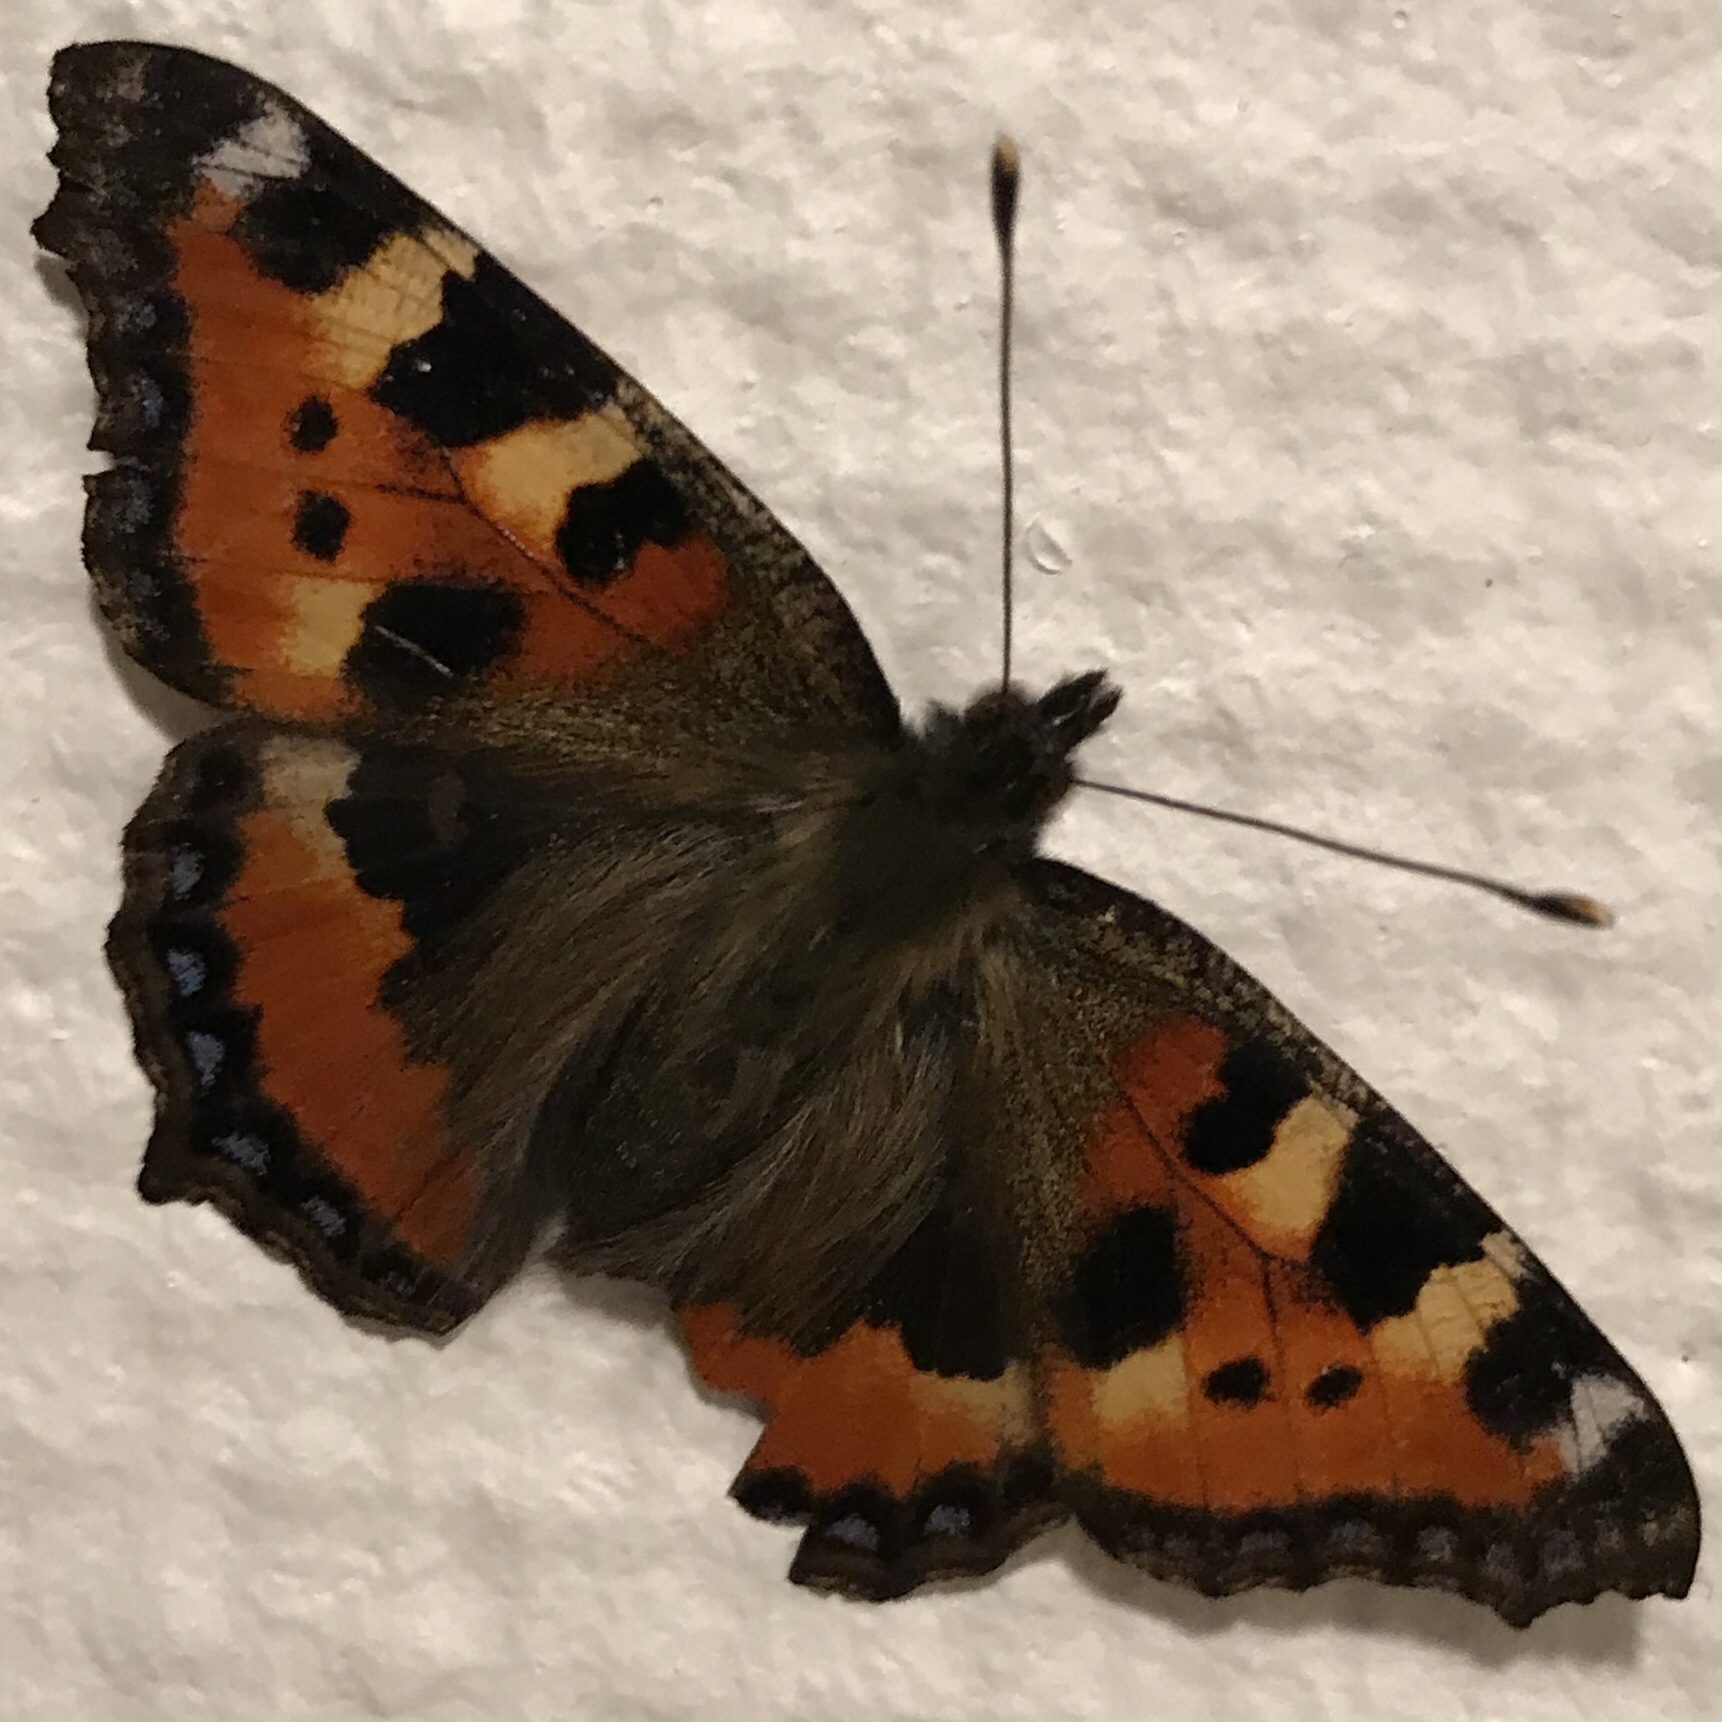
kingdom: Animalia
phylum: Arthropoda
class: Insecta
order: Lepidoptera
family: Nymphalidae
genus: Aglais
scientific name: Aglais urticae
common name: Small tortoiseshell
